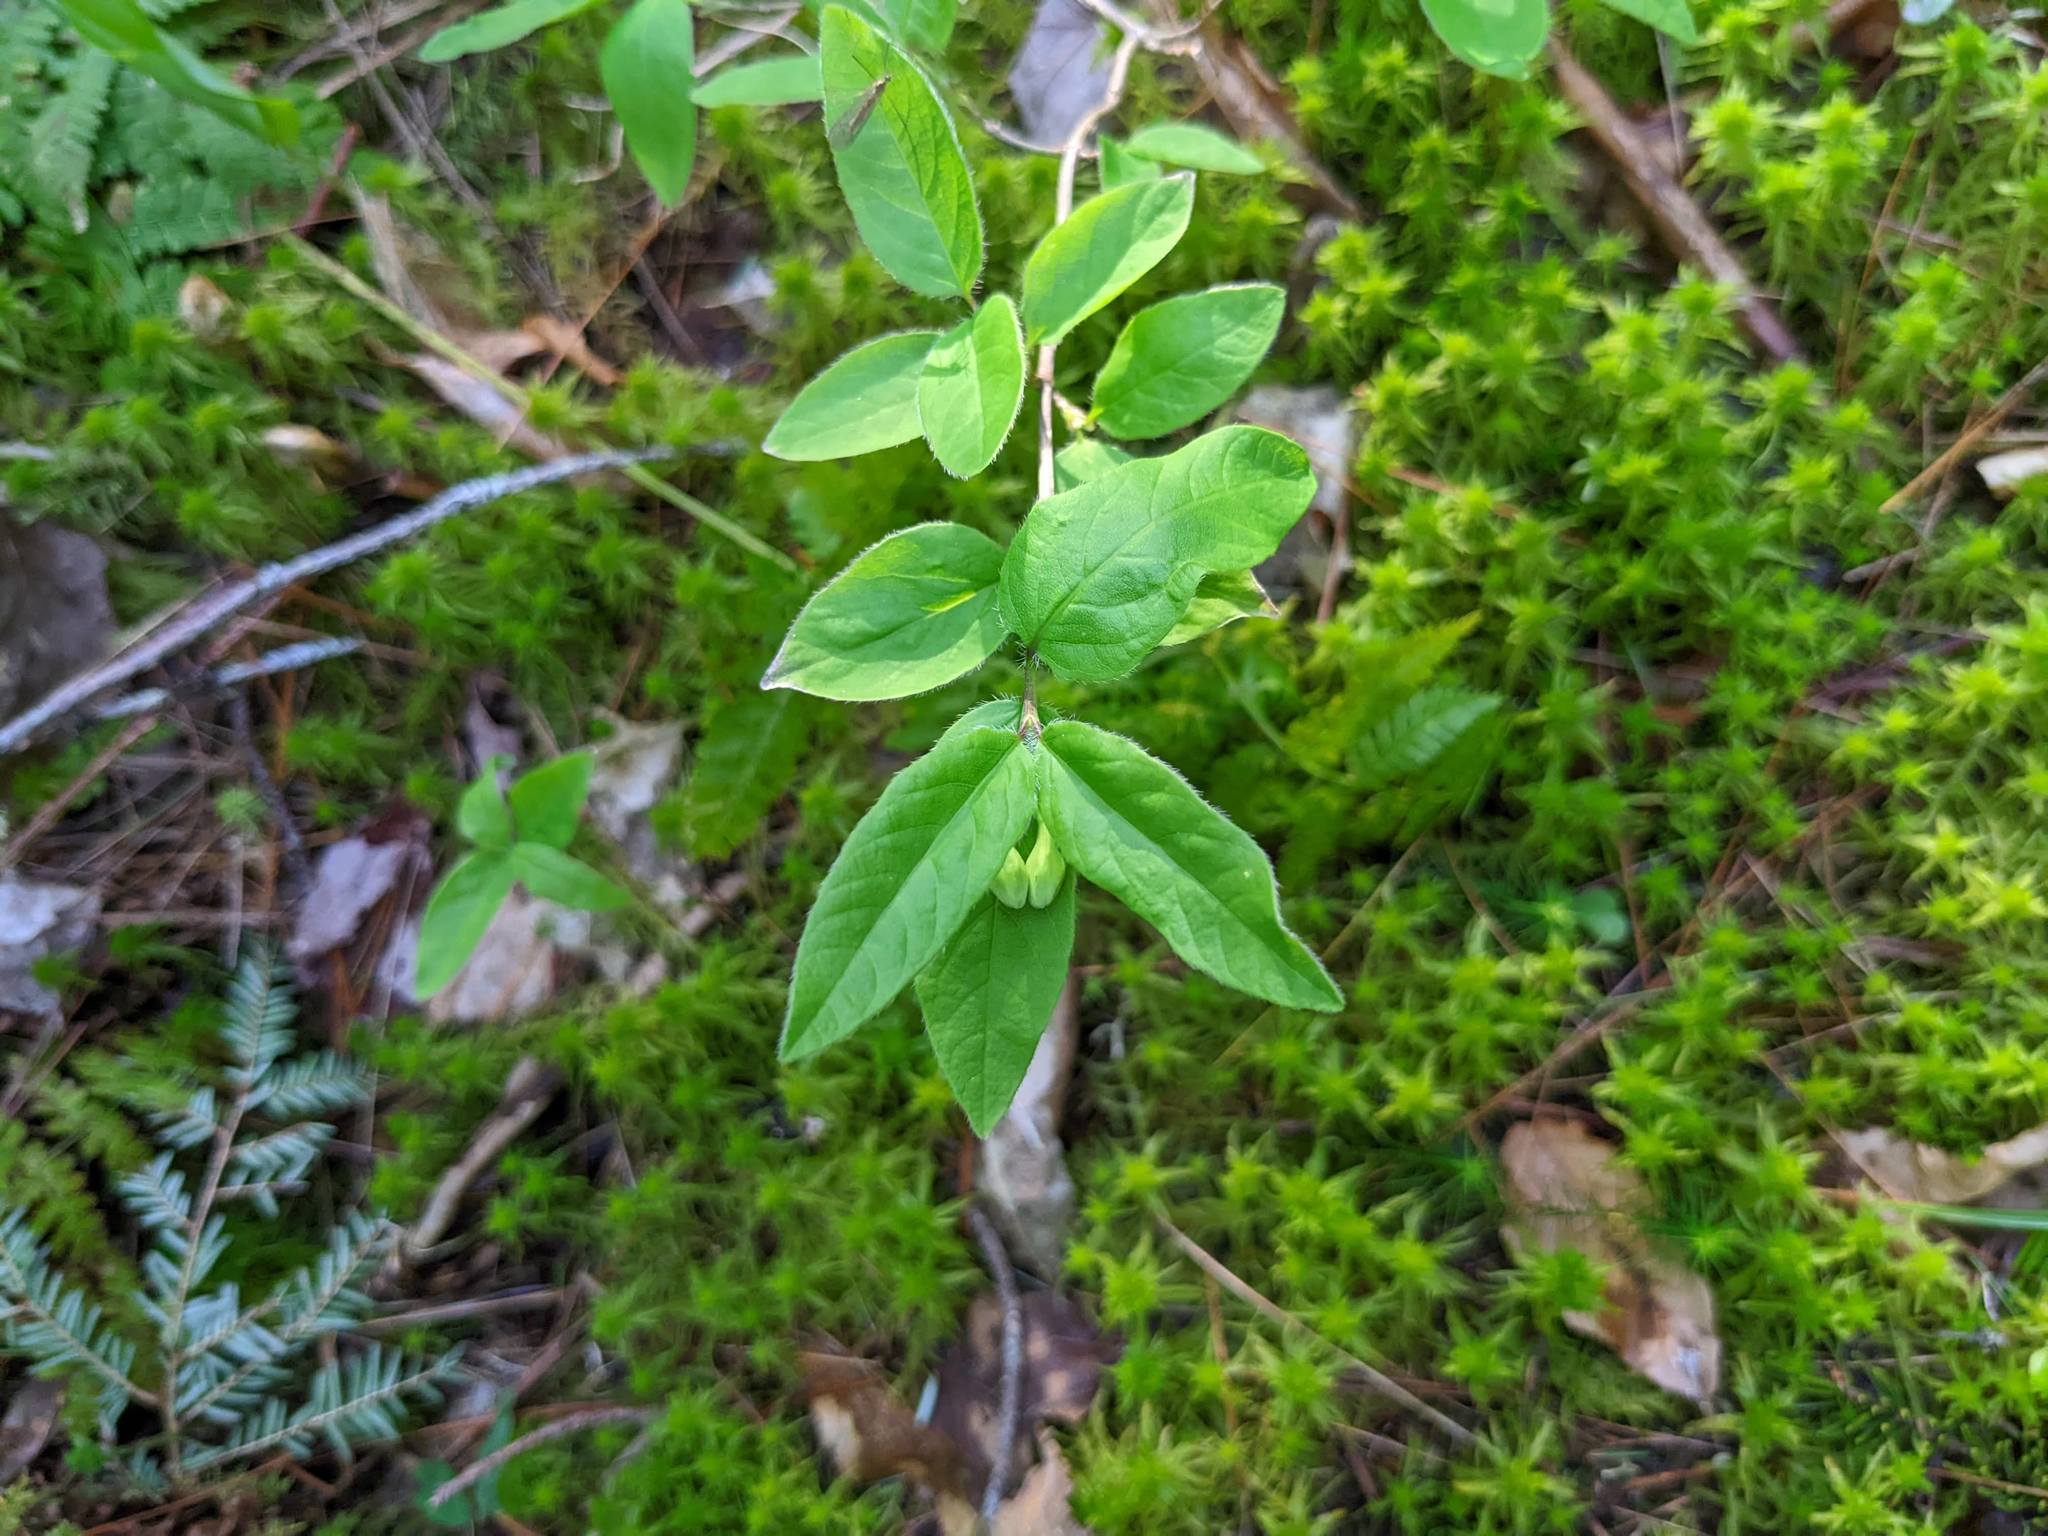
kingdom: Plantae
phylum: Tracheophyta
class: Magnoliopsida
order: Dipsacales
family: Caprifoliaceae
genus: Lonicera
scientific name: Lonicera canadensis
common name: American fly-honeysuckle
